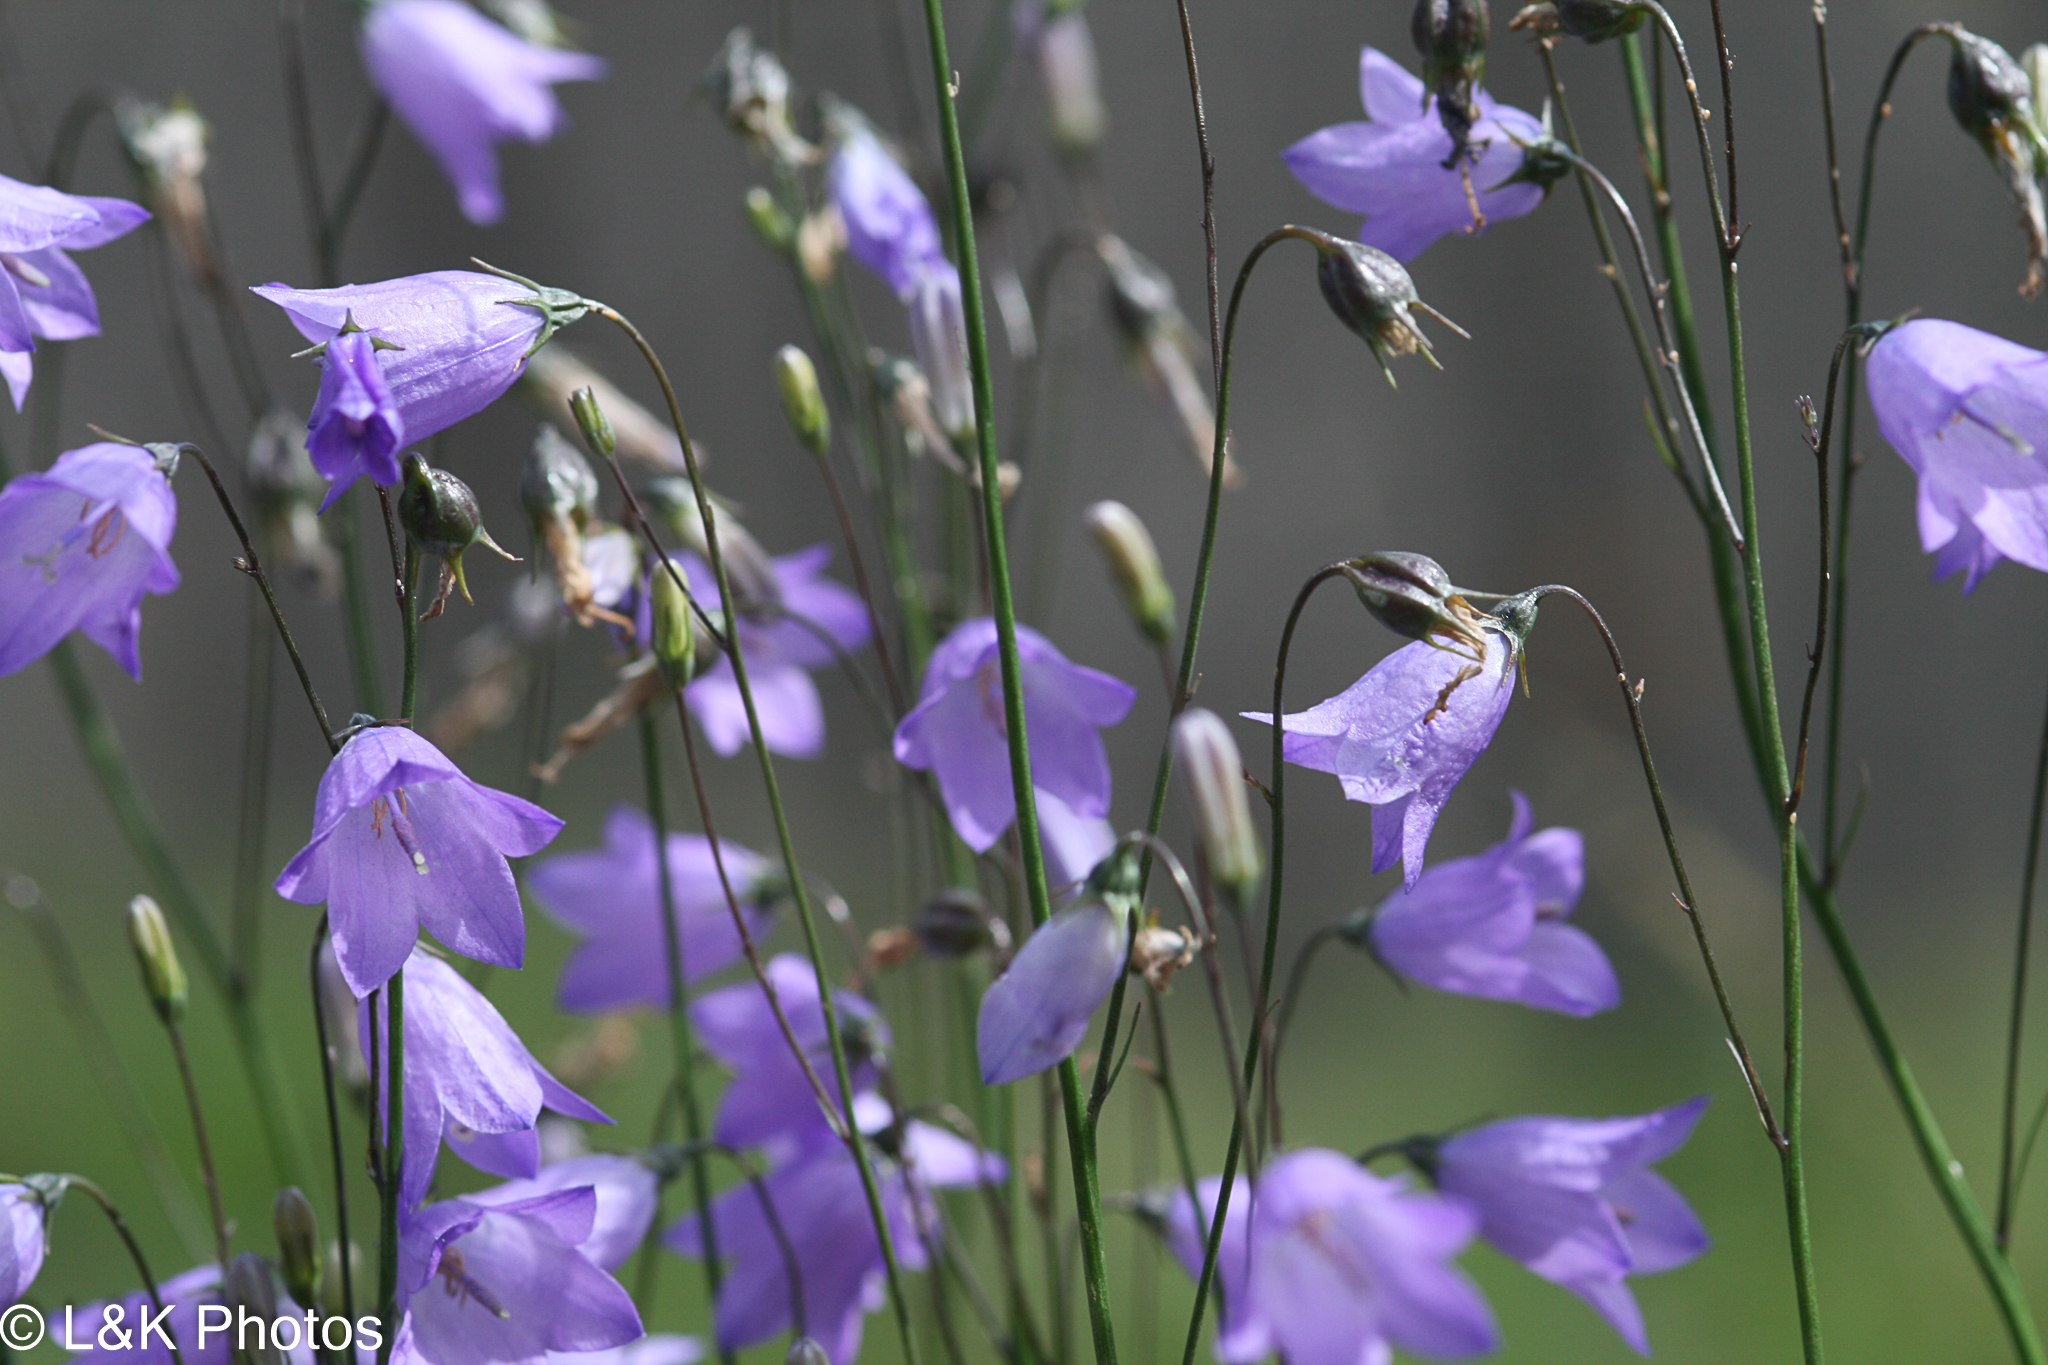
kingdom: Plantae
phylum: Tracheophyta
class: Magnoliopsida
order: Asterales
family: Campanulaceae
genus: Campanula
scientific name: Campanula alaskana
